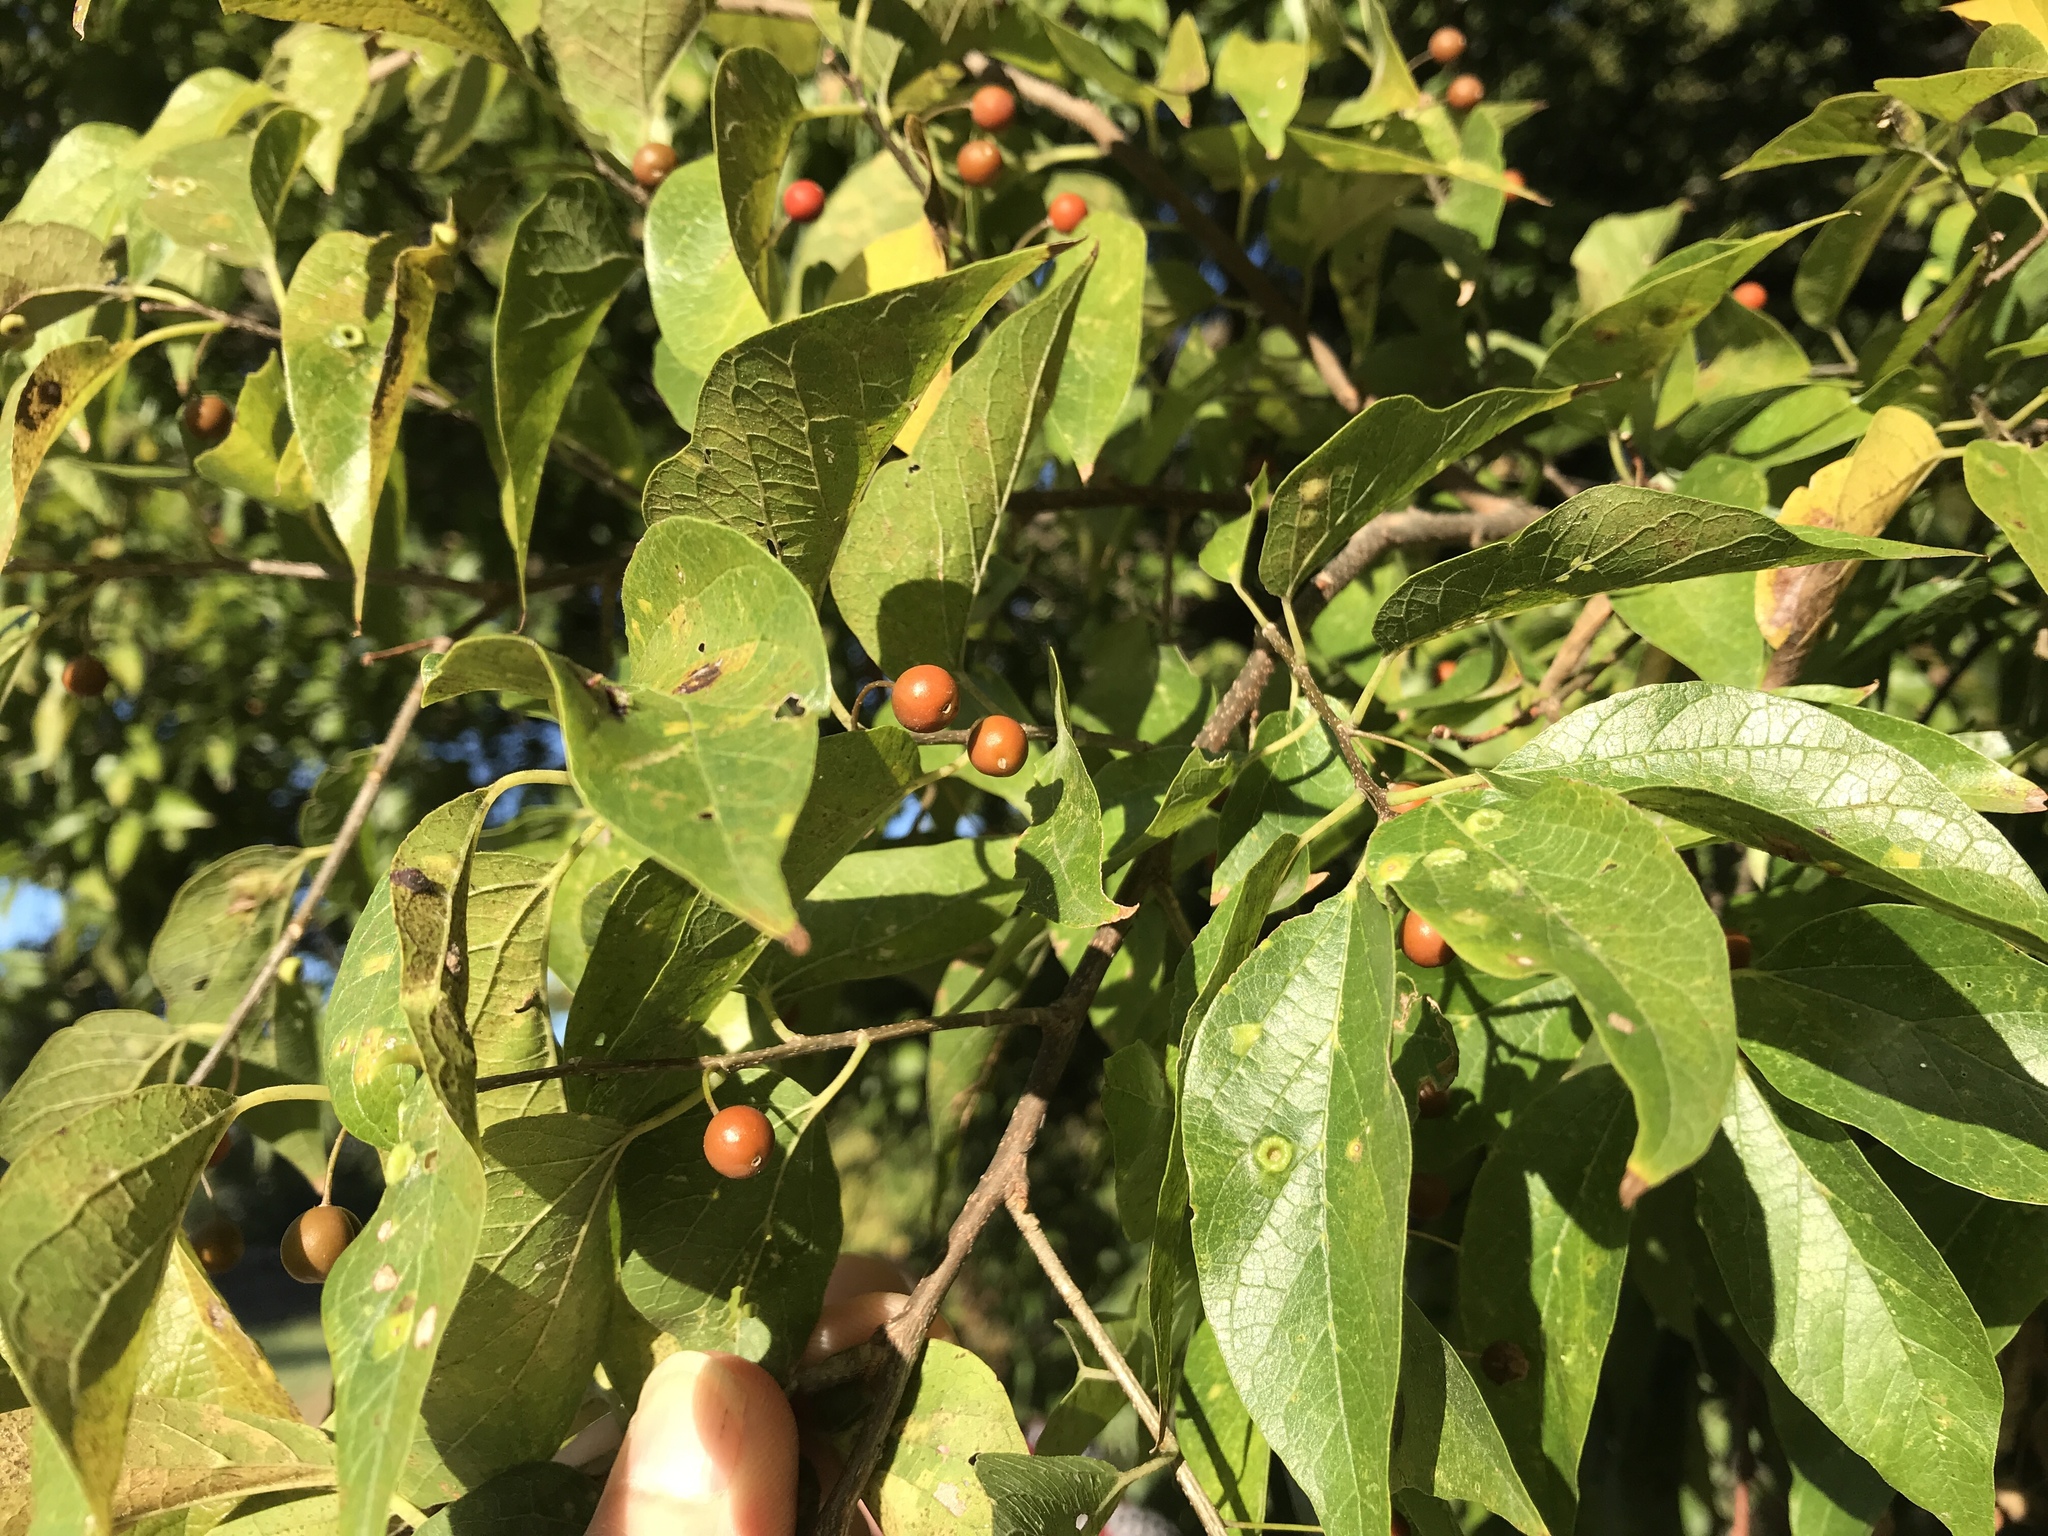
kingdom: Plantae
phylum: Tracheophyta
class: Magnoliopsida
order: Rosales
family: Cannabaceae
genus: Celtis
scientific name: Celtis laevigata
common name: Sugarberry
